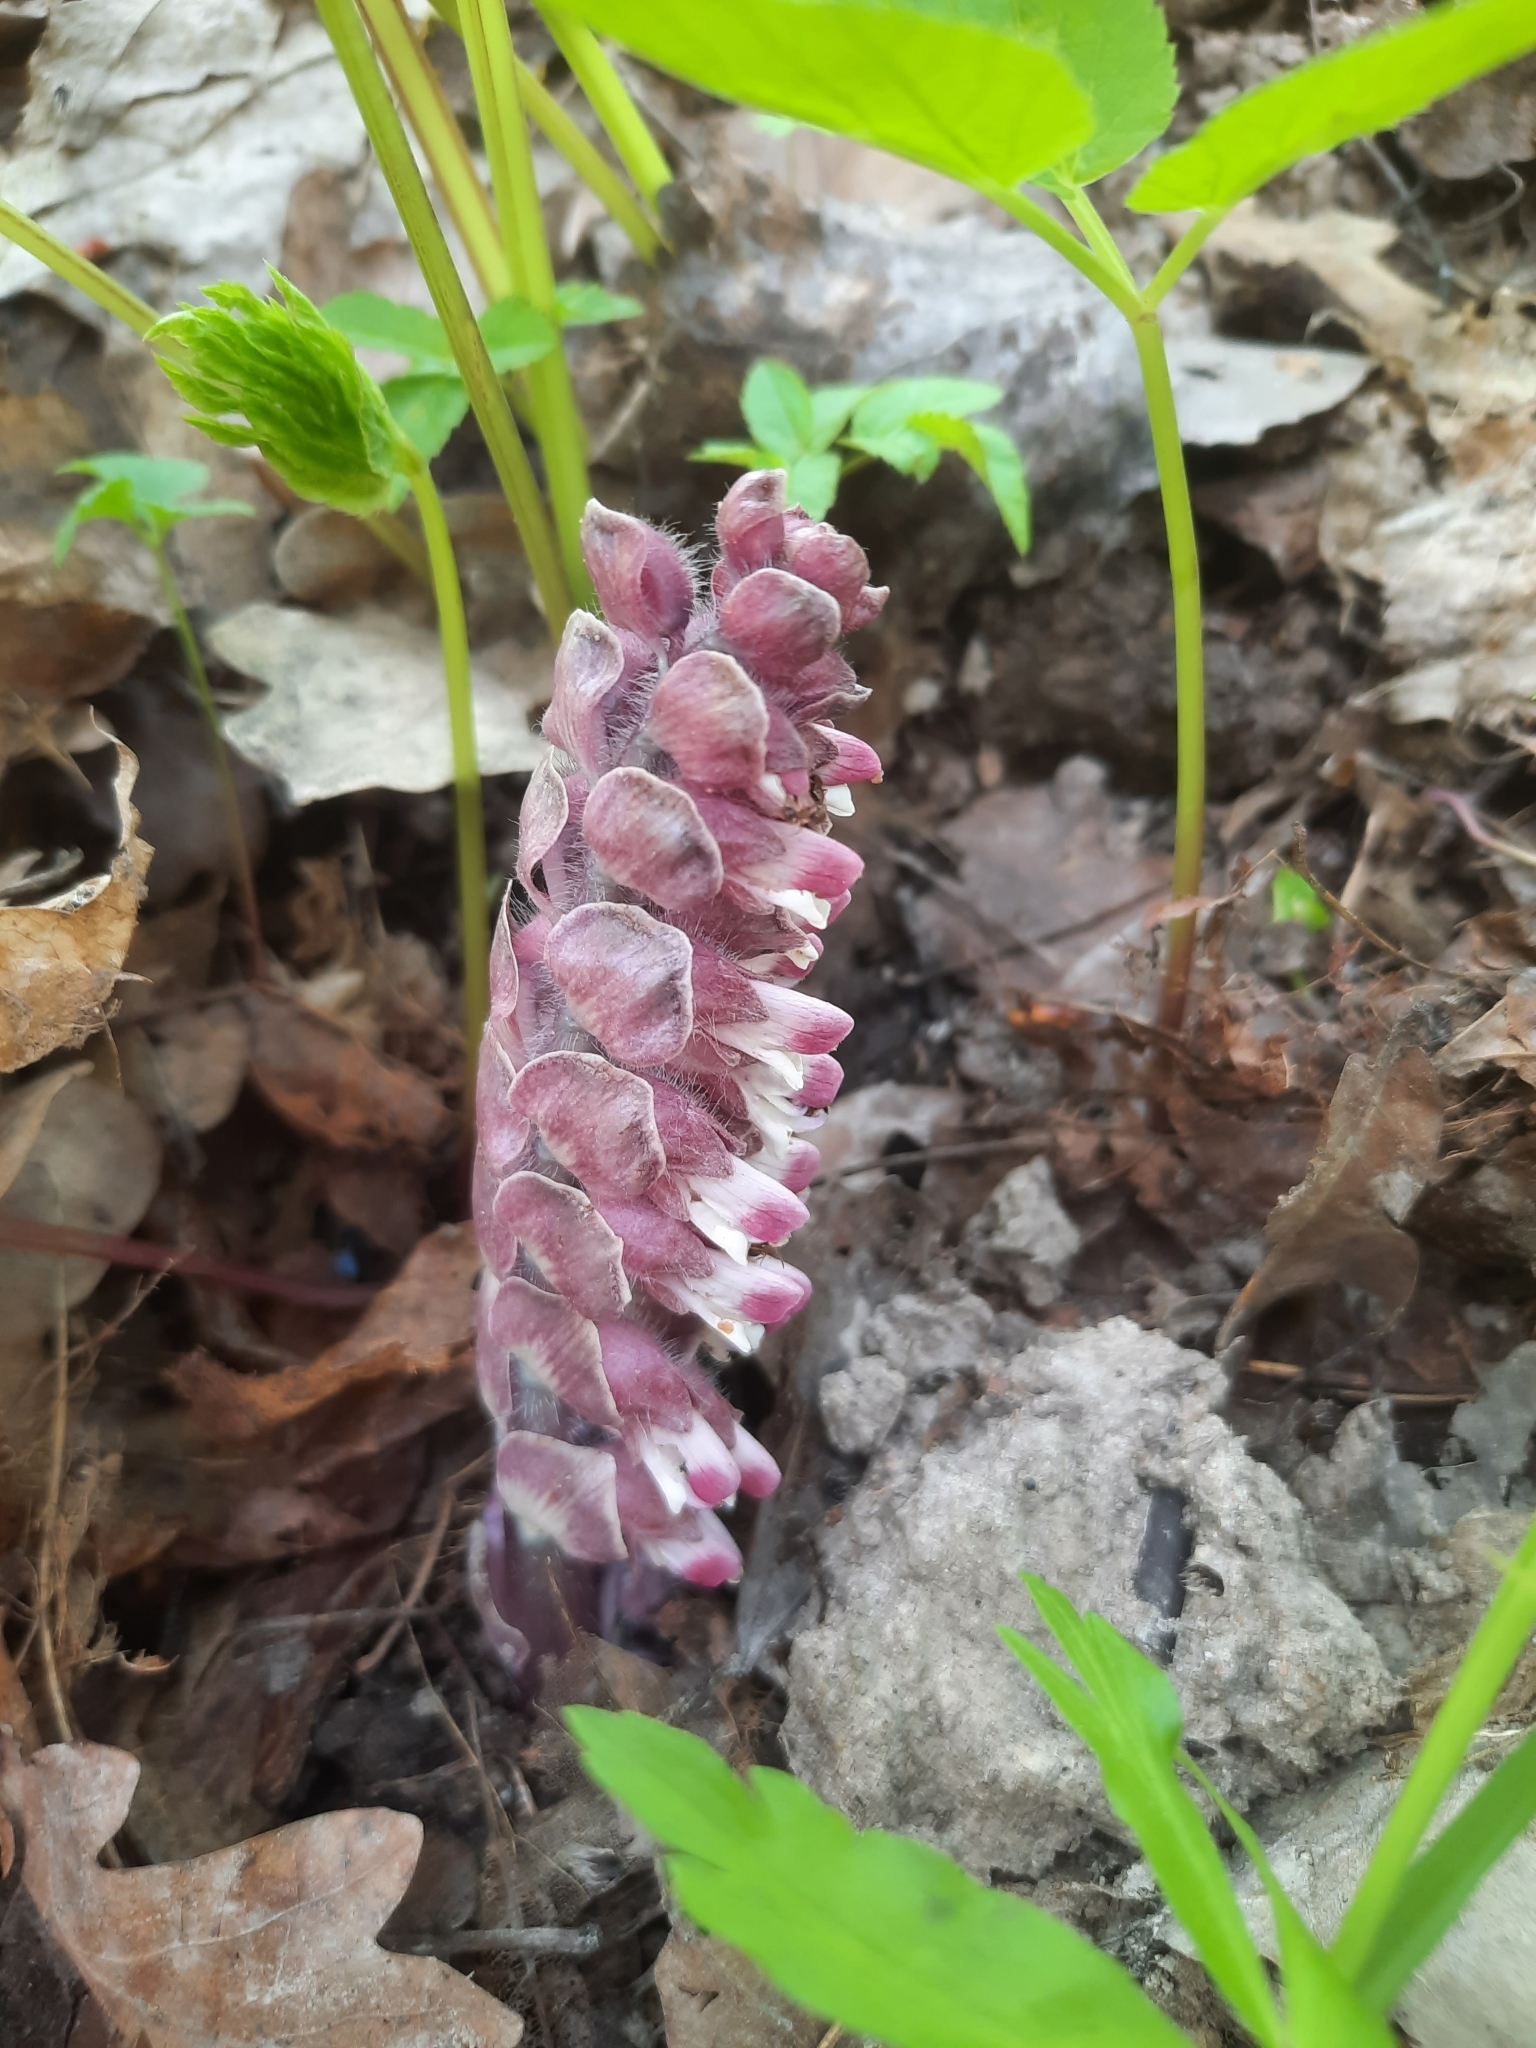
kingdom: Plantae
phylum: Tracheophyta
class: Magnoliopsida
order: Lamiales
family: Orobanchaceae
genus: Lathraea
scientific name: Lathraea squamaria
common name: Toothwort
